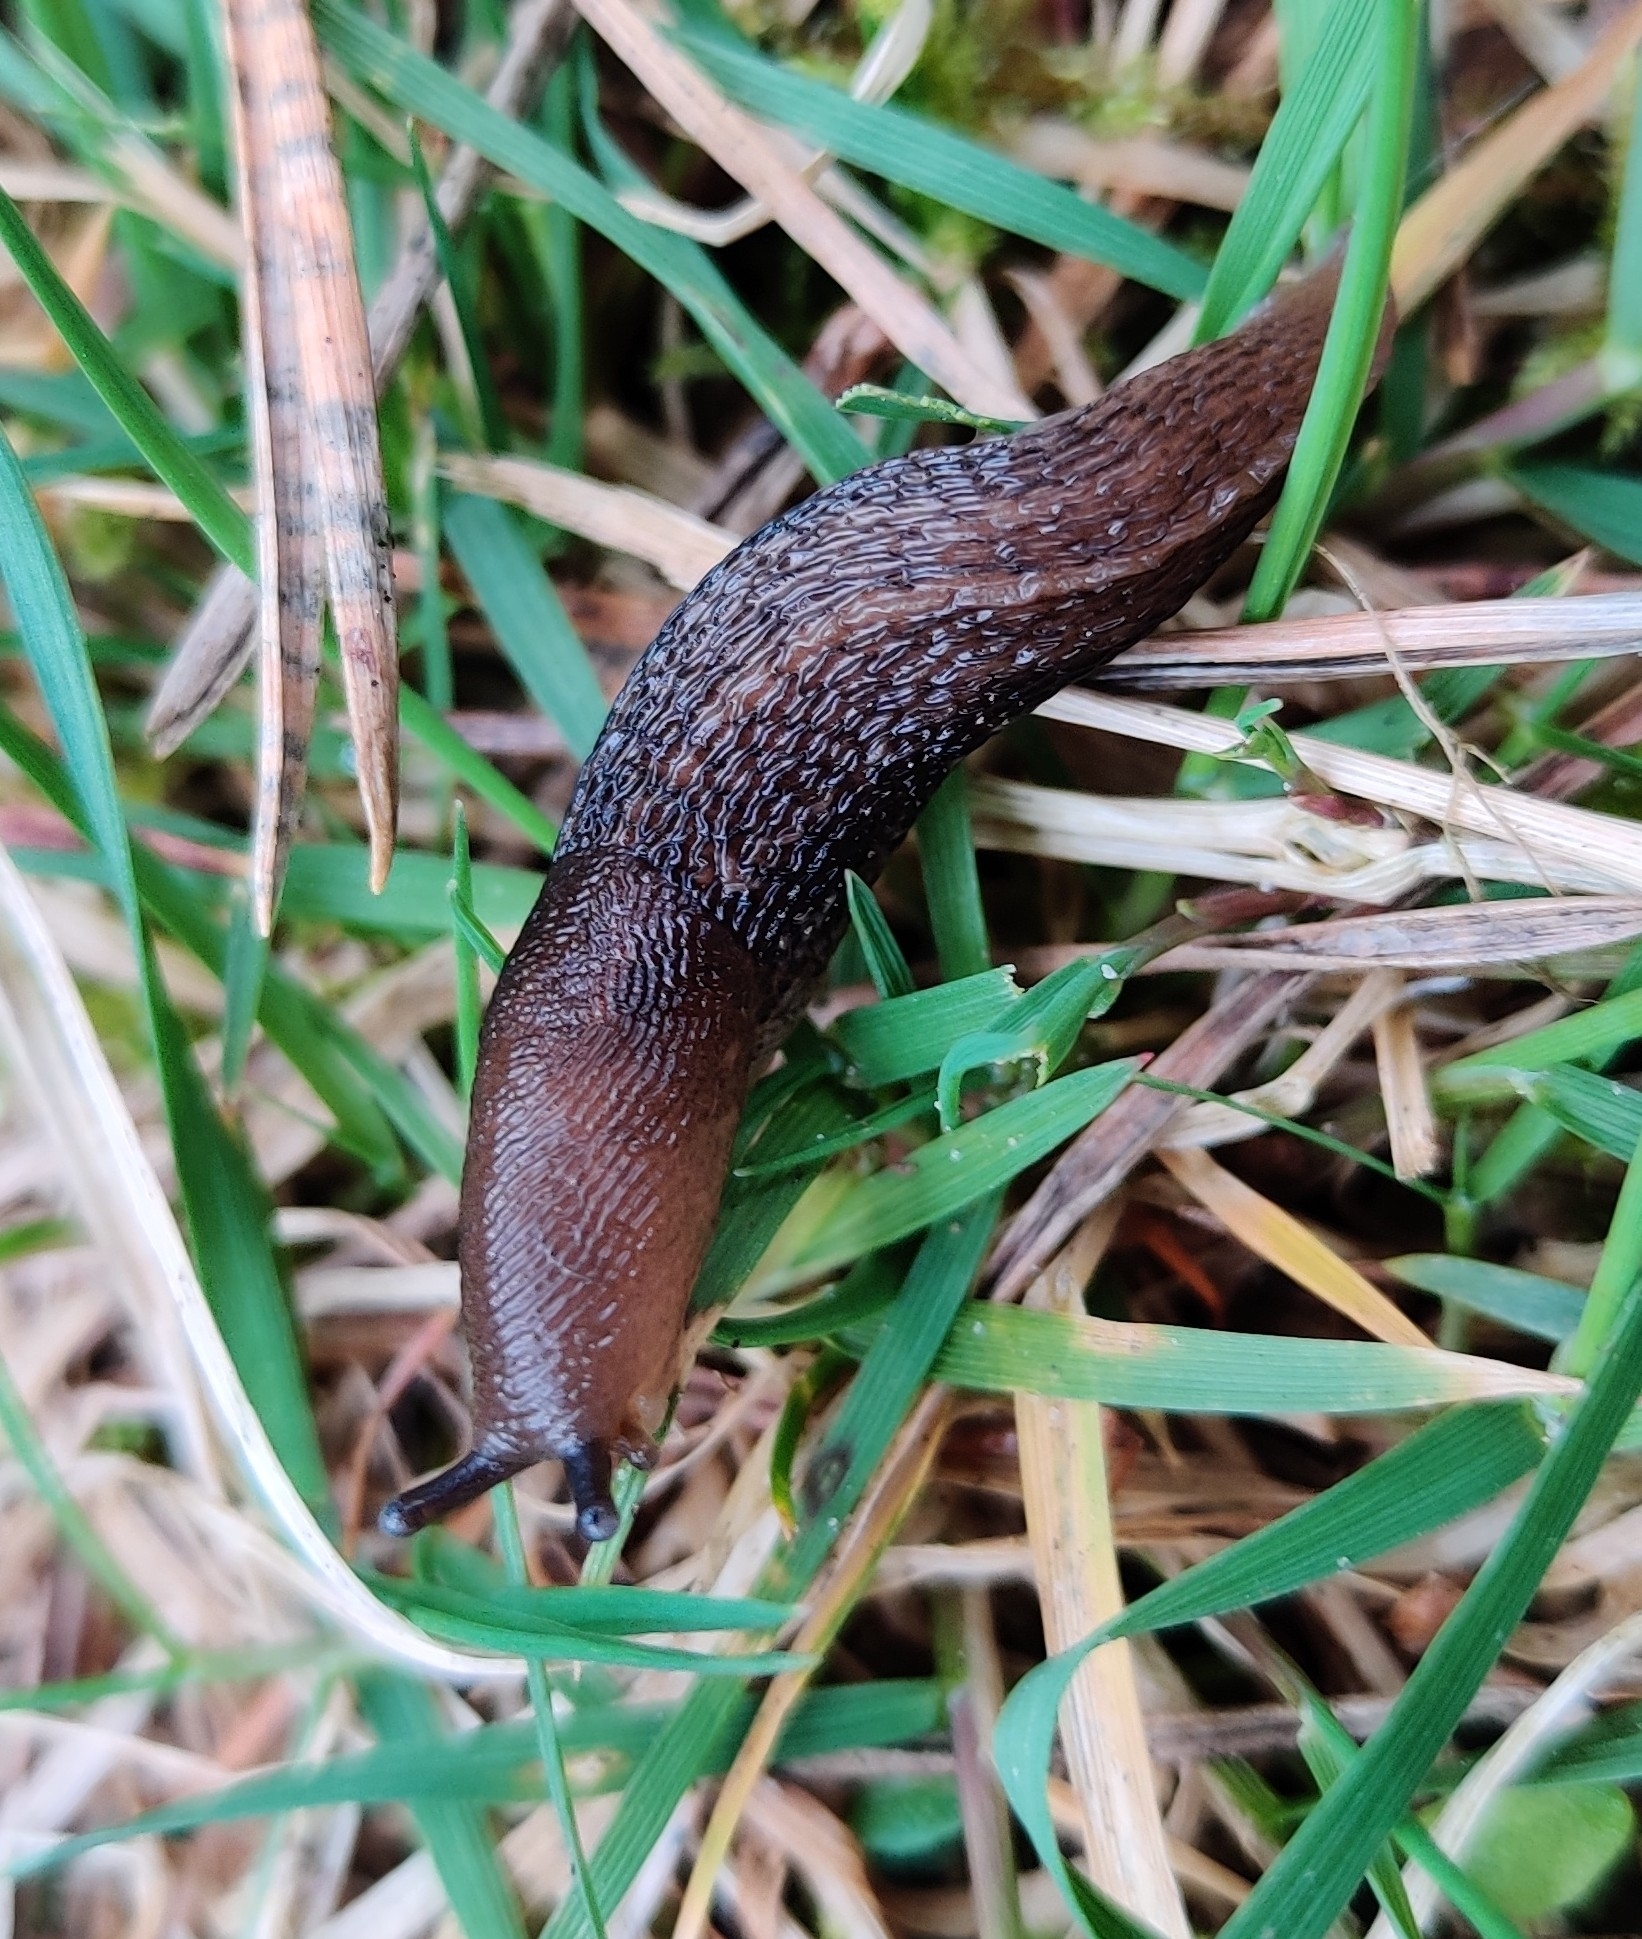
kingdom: Animalia
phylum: Mollusca
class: Gastropoda
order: Stylommatophora
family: Limacidae
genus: Limax
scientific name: Limax cinereoniger
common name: Ash-black slug
